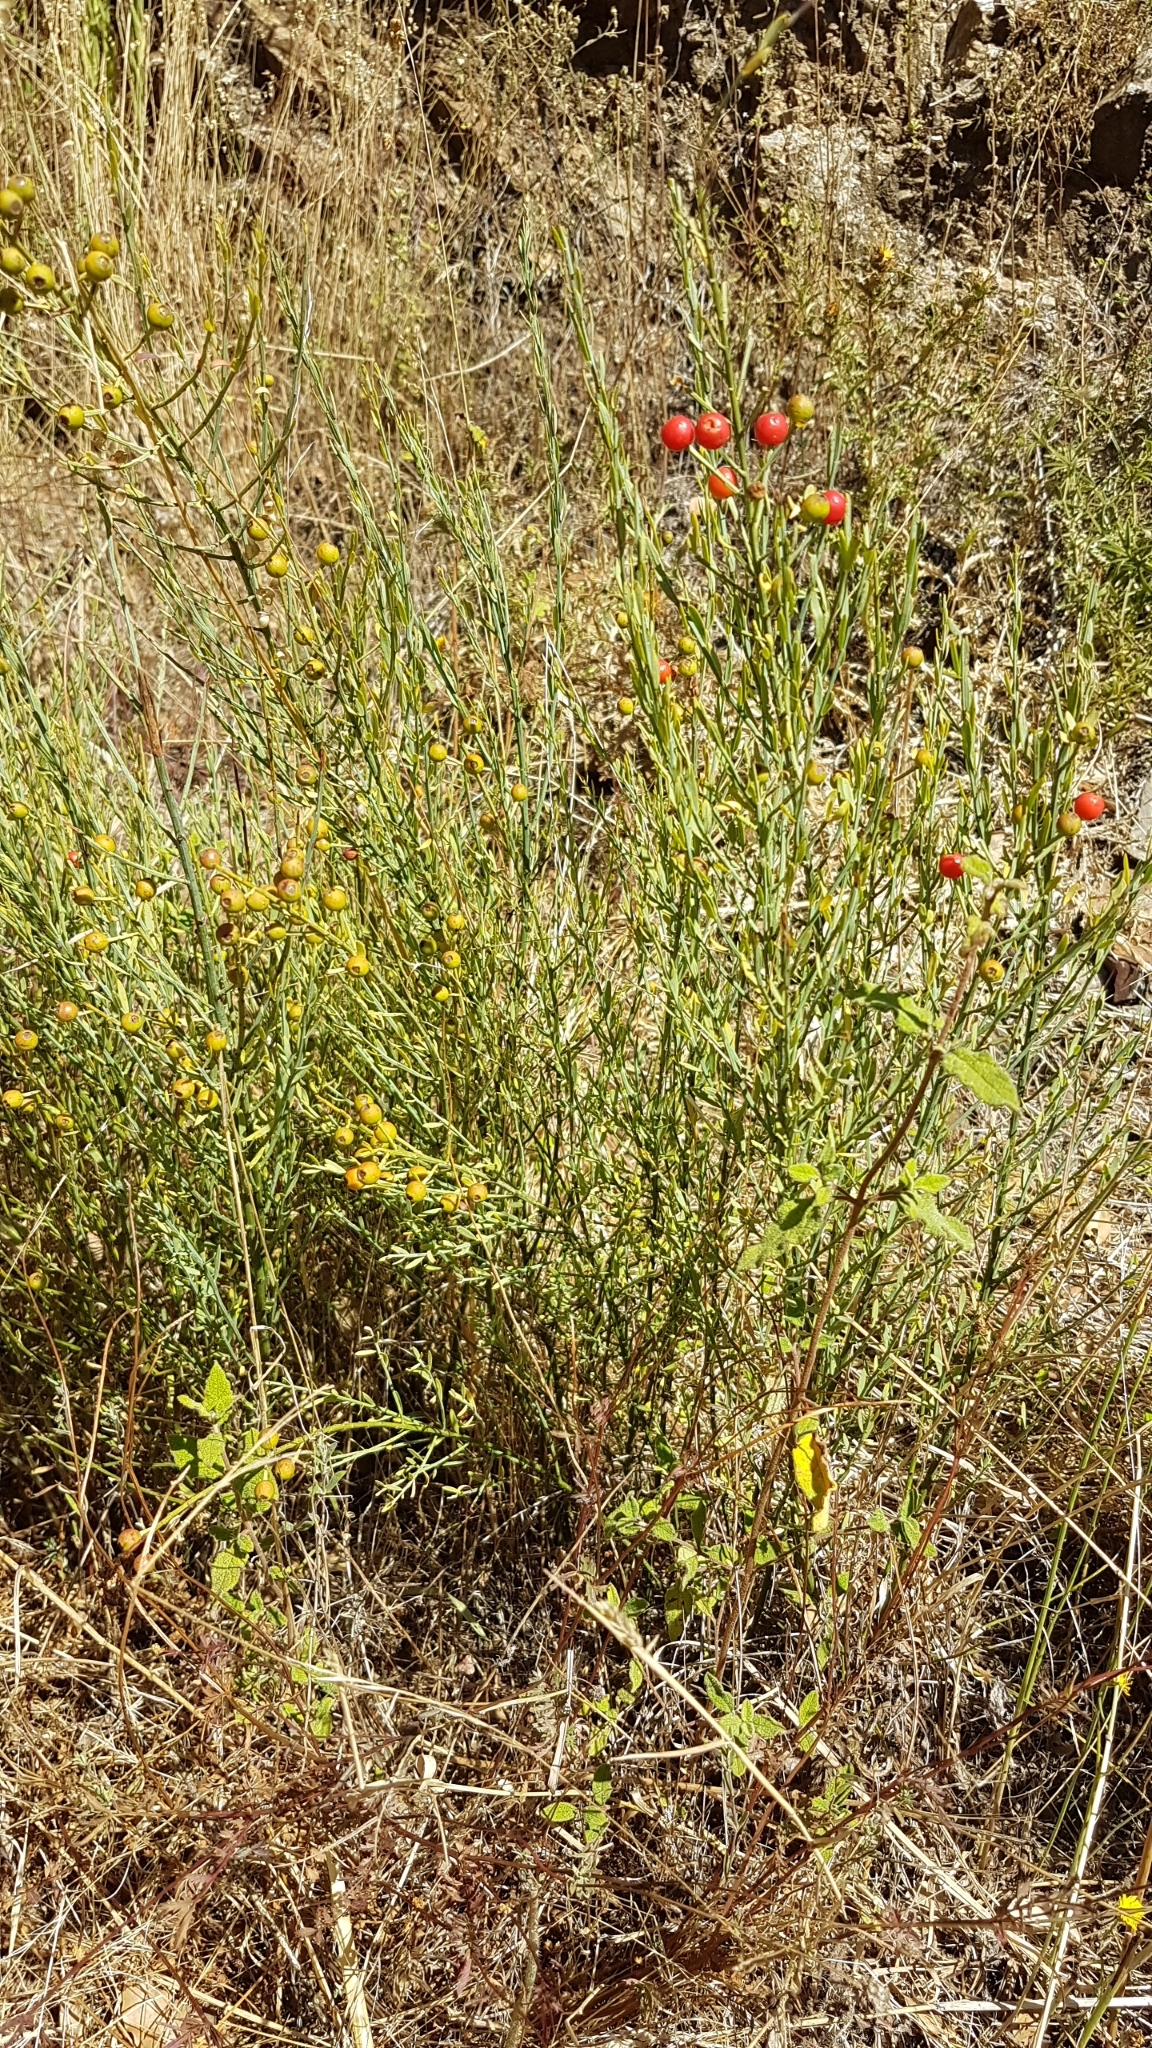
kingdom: Plantae
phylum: Tracheophyta
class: Magnoliopsida
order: Santalales
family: Santalaceae
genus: Osyris
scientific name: Osyris alba
